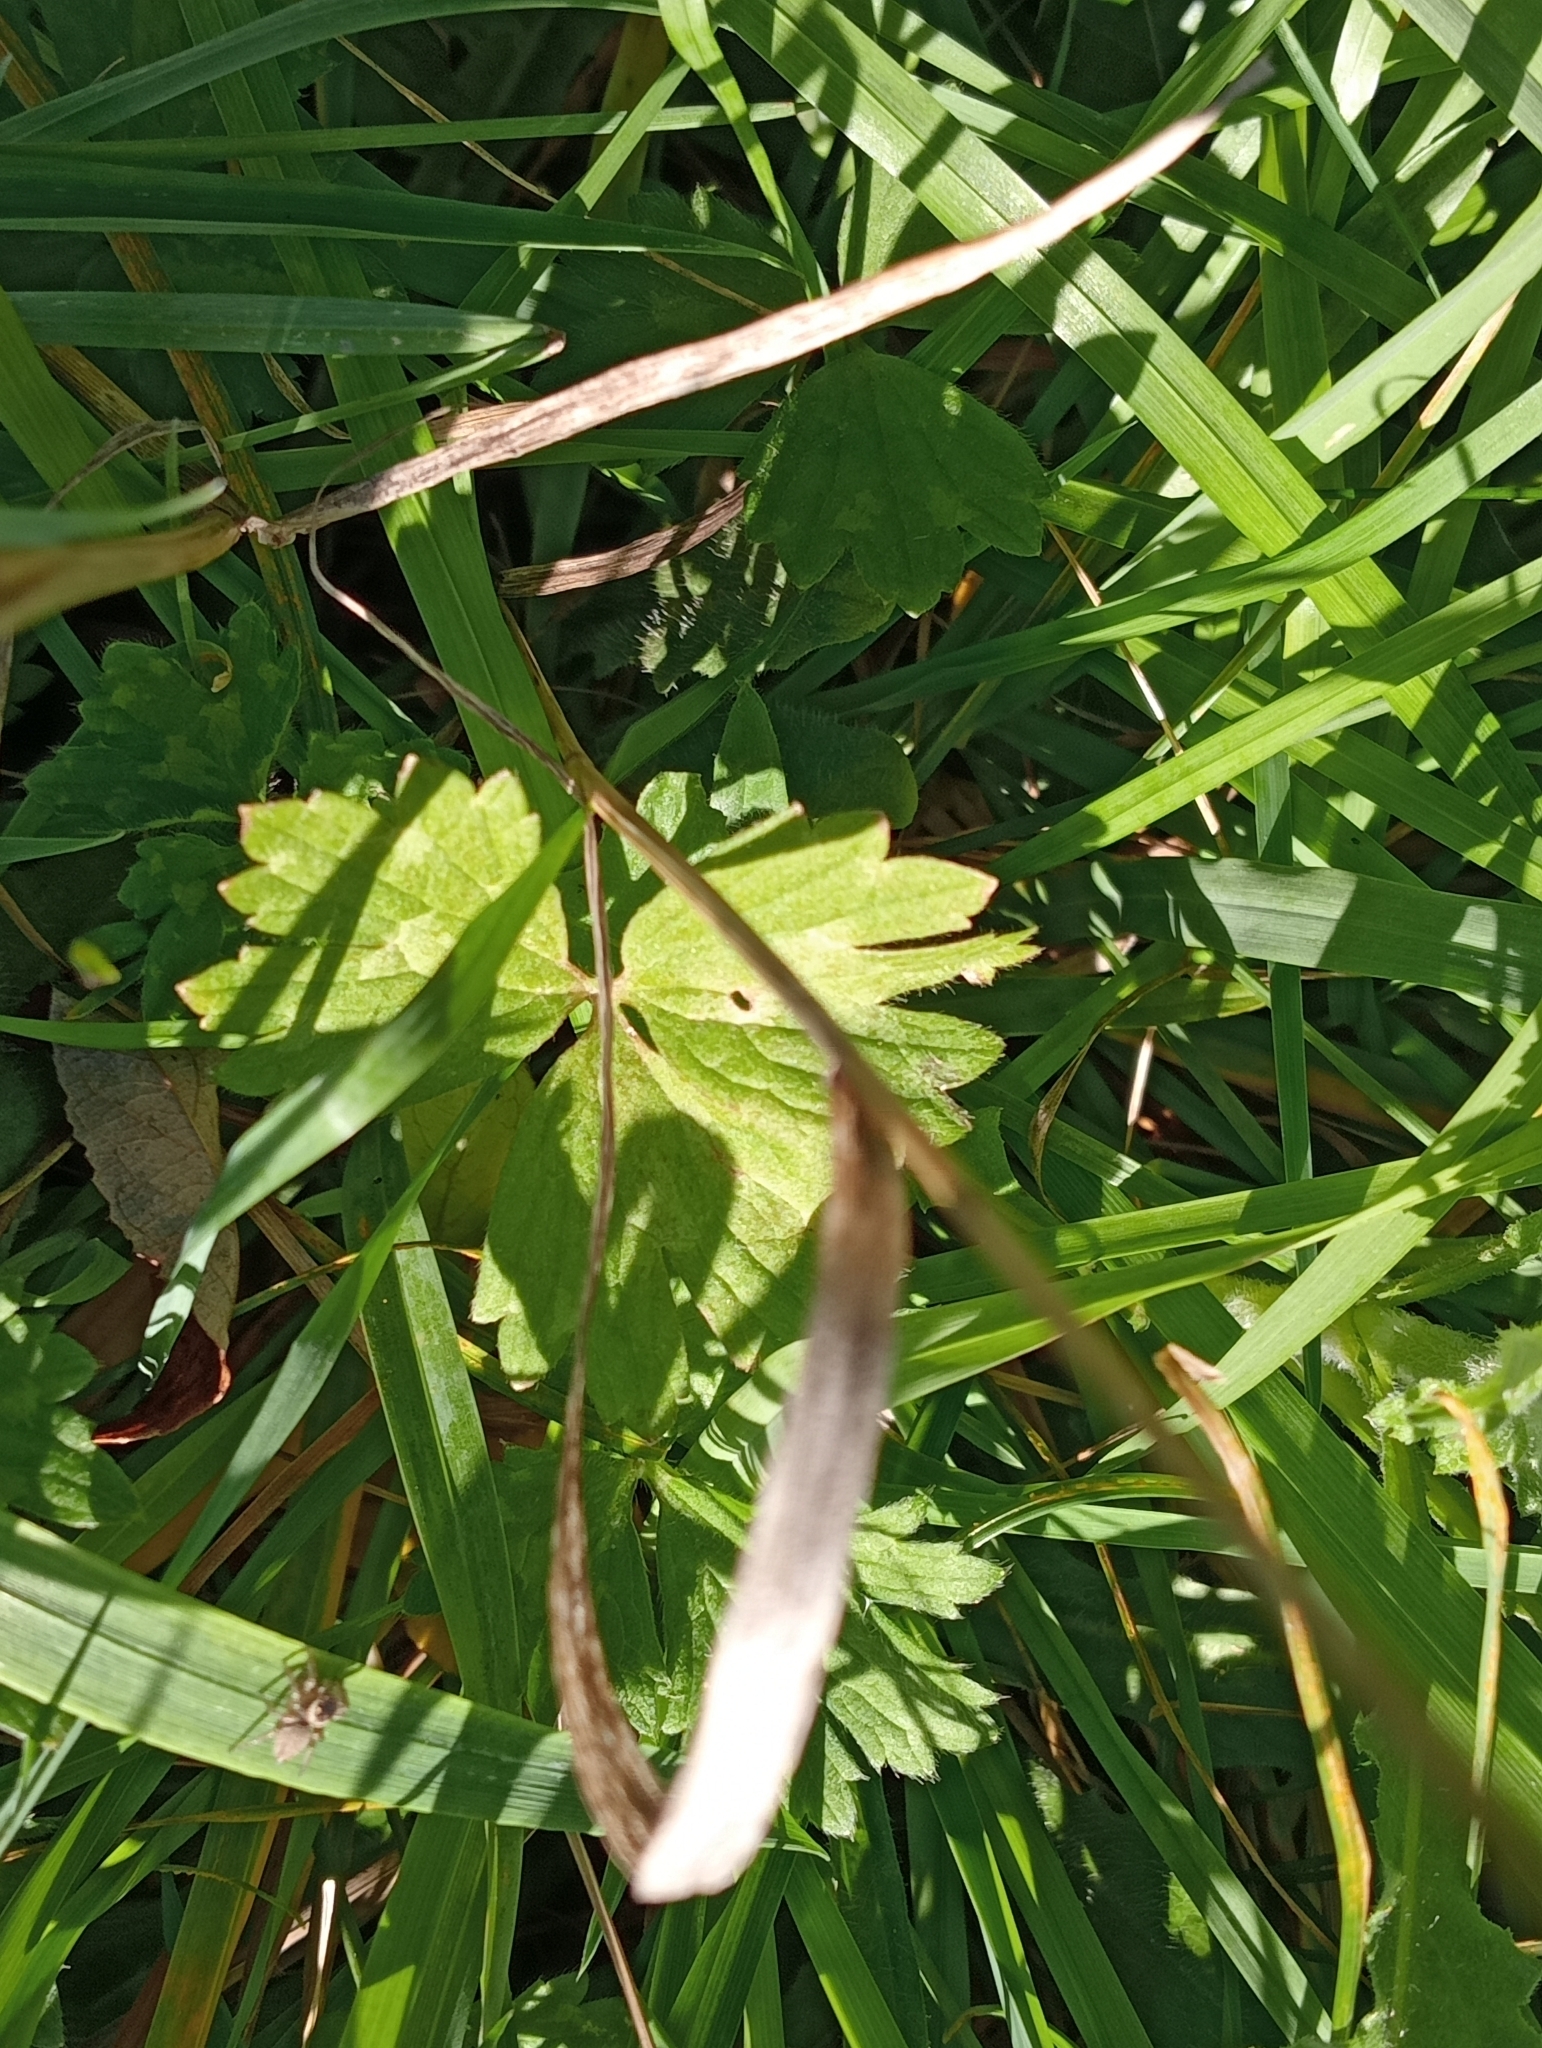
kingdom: Plantae
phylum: Tracheophyta
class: Magnoliopsida
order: Ranunculales
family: Ranunculaceae
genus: Ranunculus
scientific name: Ranunculus repens
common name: Creeping buttercup
